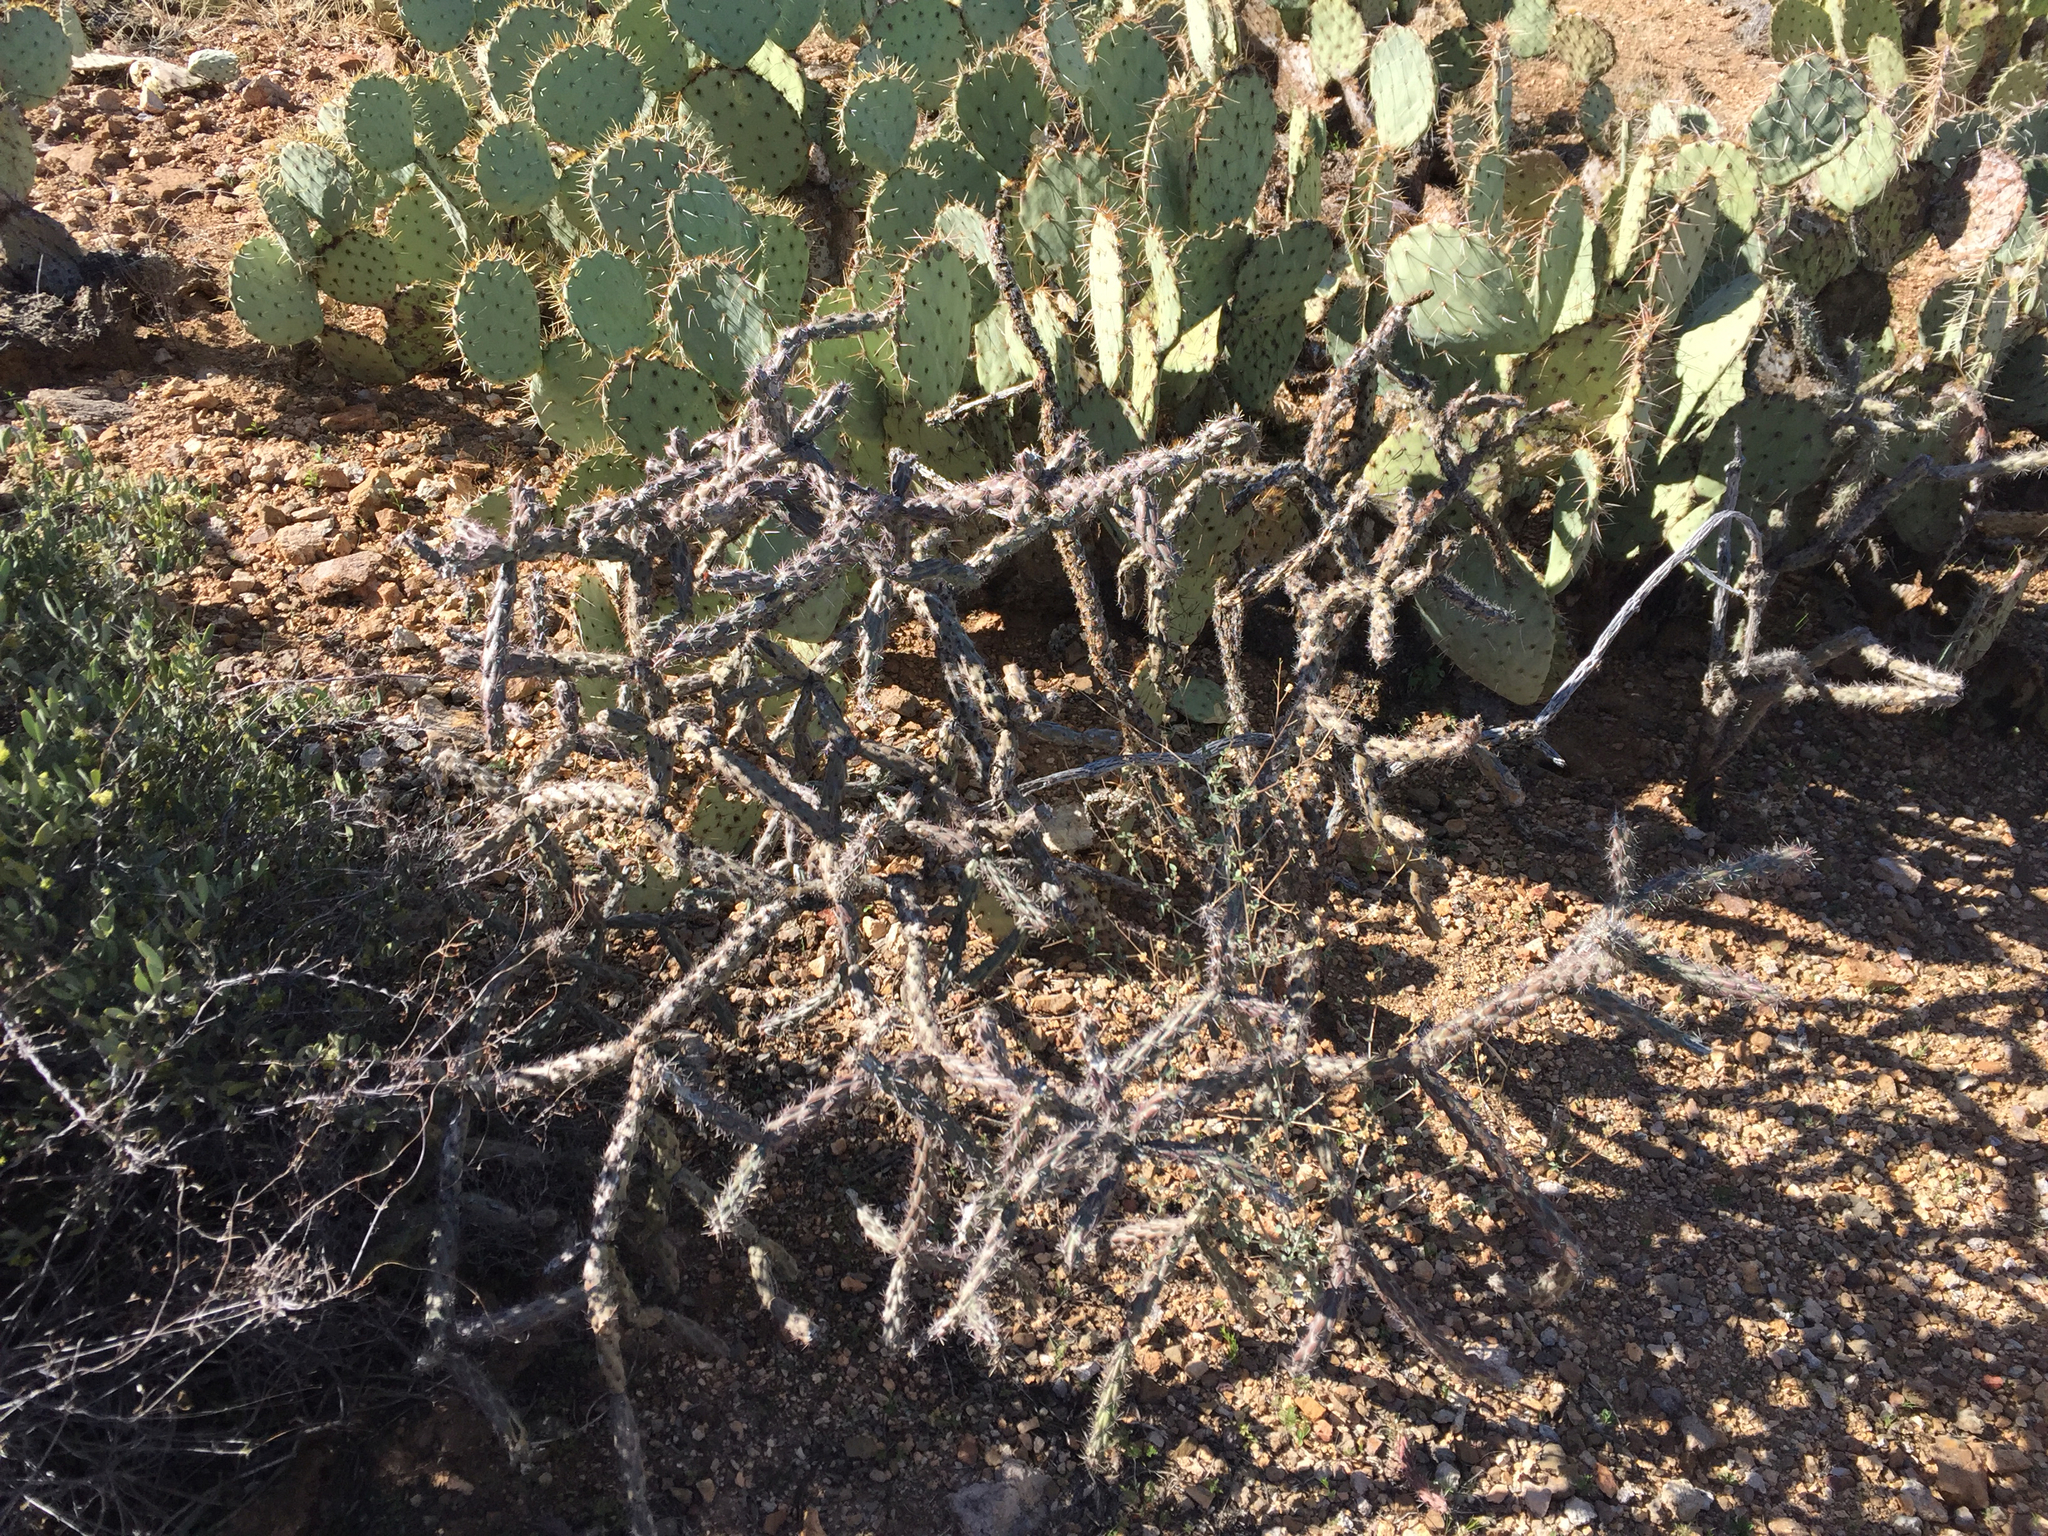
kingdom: Plantae
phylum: Tracheophyta
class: Magnoliopsida
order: Caryophyllales
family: Cactaceae
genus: Cylindropuntia
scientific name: Cylindropuntia thurberi
